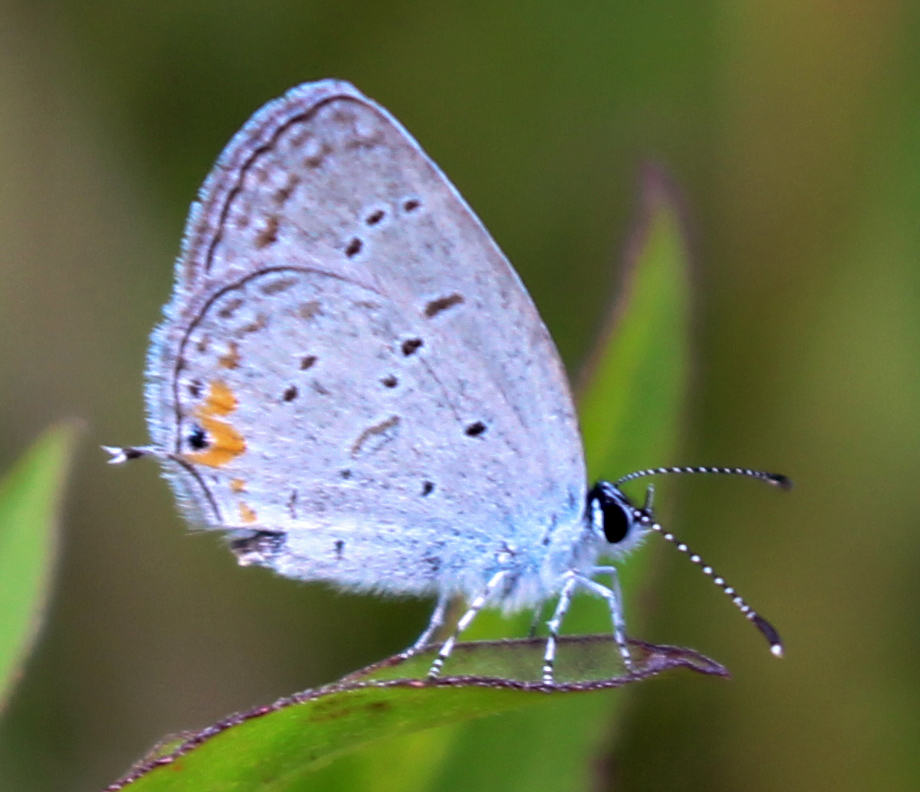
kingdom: Animalia
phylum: Arthropoda
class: Insecta
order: Lepidoptera
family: Lycaenidae
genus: Elkalyce
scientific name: Elkalyce comyntas
